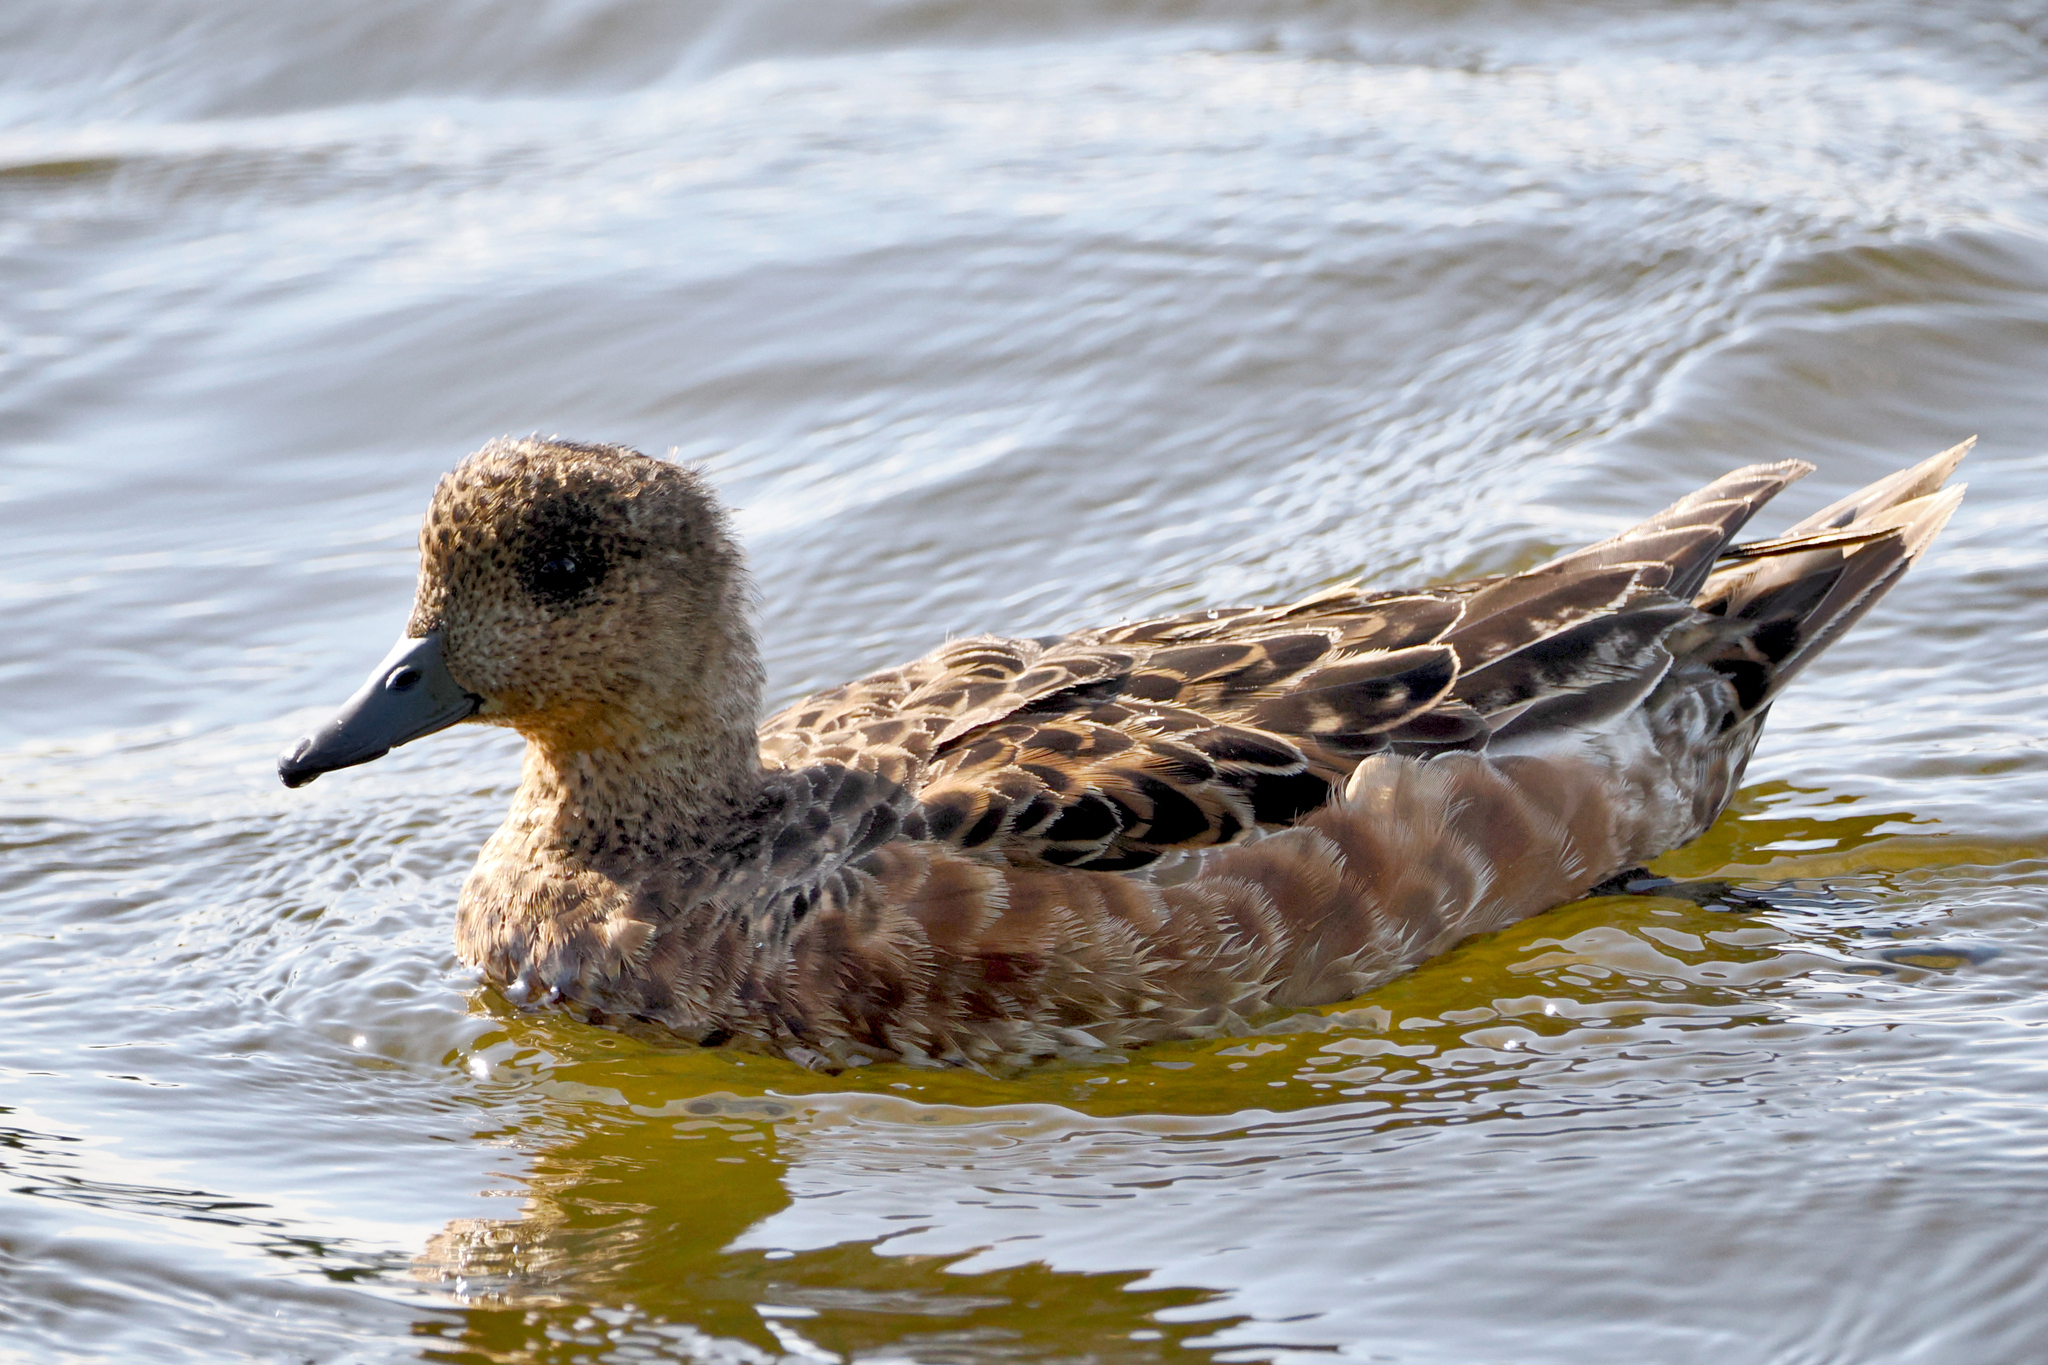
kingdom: Animalia
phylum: Chordata
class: Aves
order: Anseriformes
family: Anatidae
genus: Mareca
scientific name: Mareca penelope
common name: Eurasian wigeon
